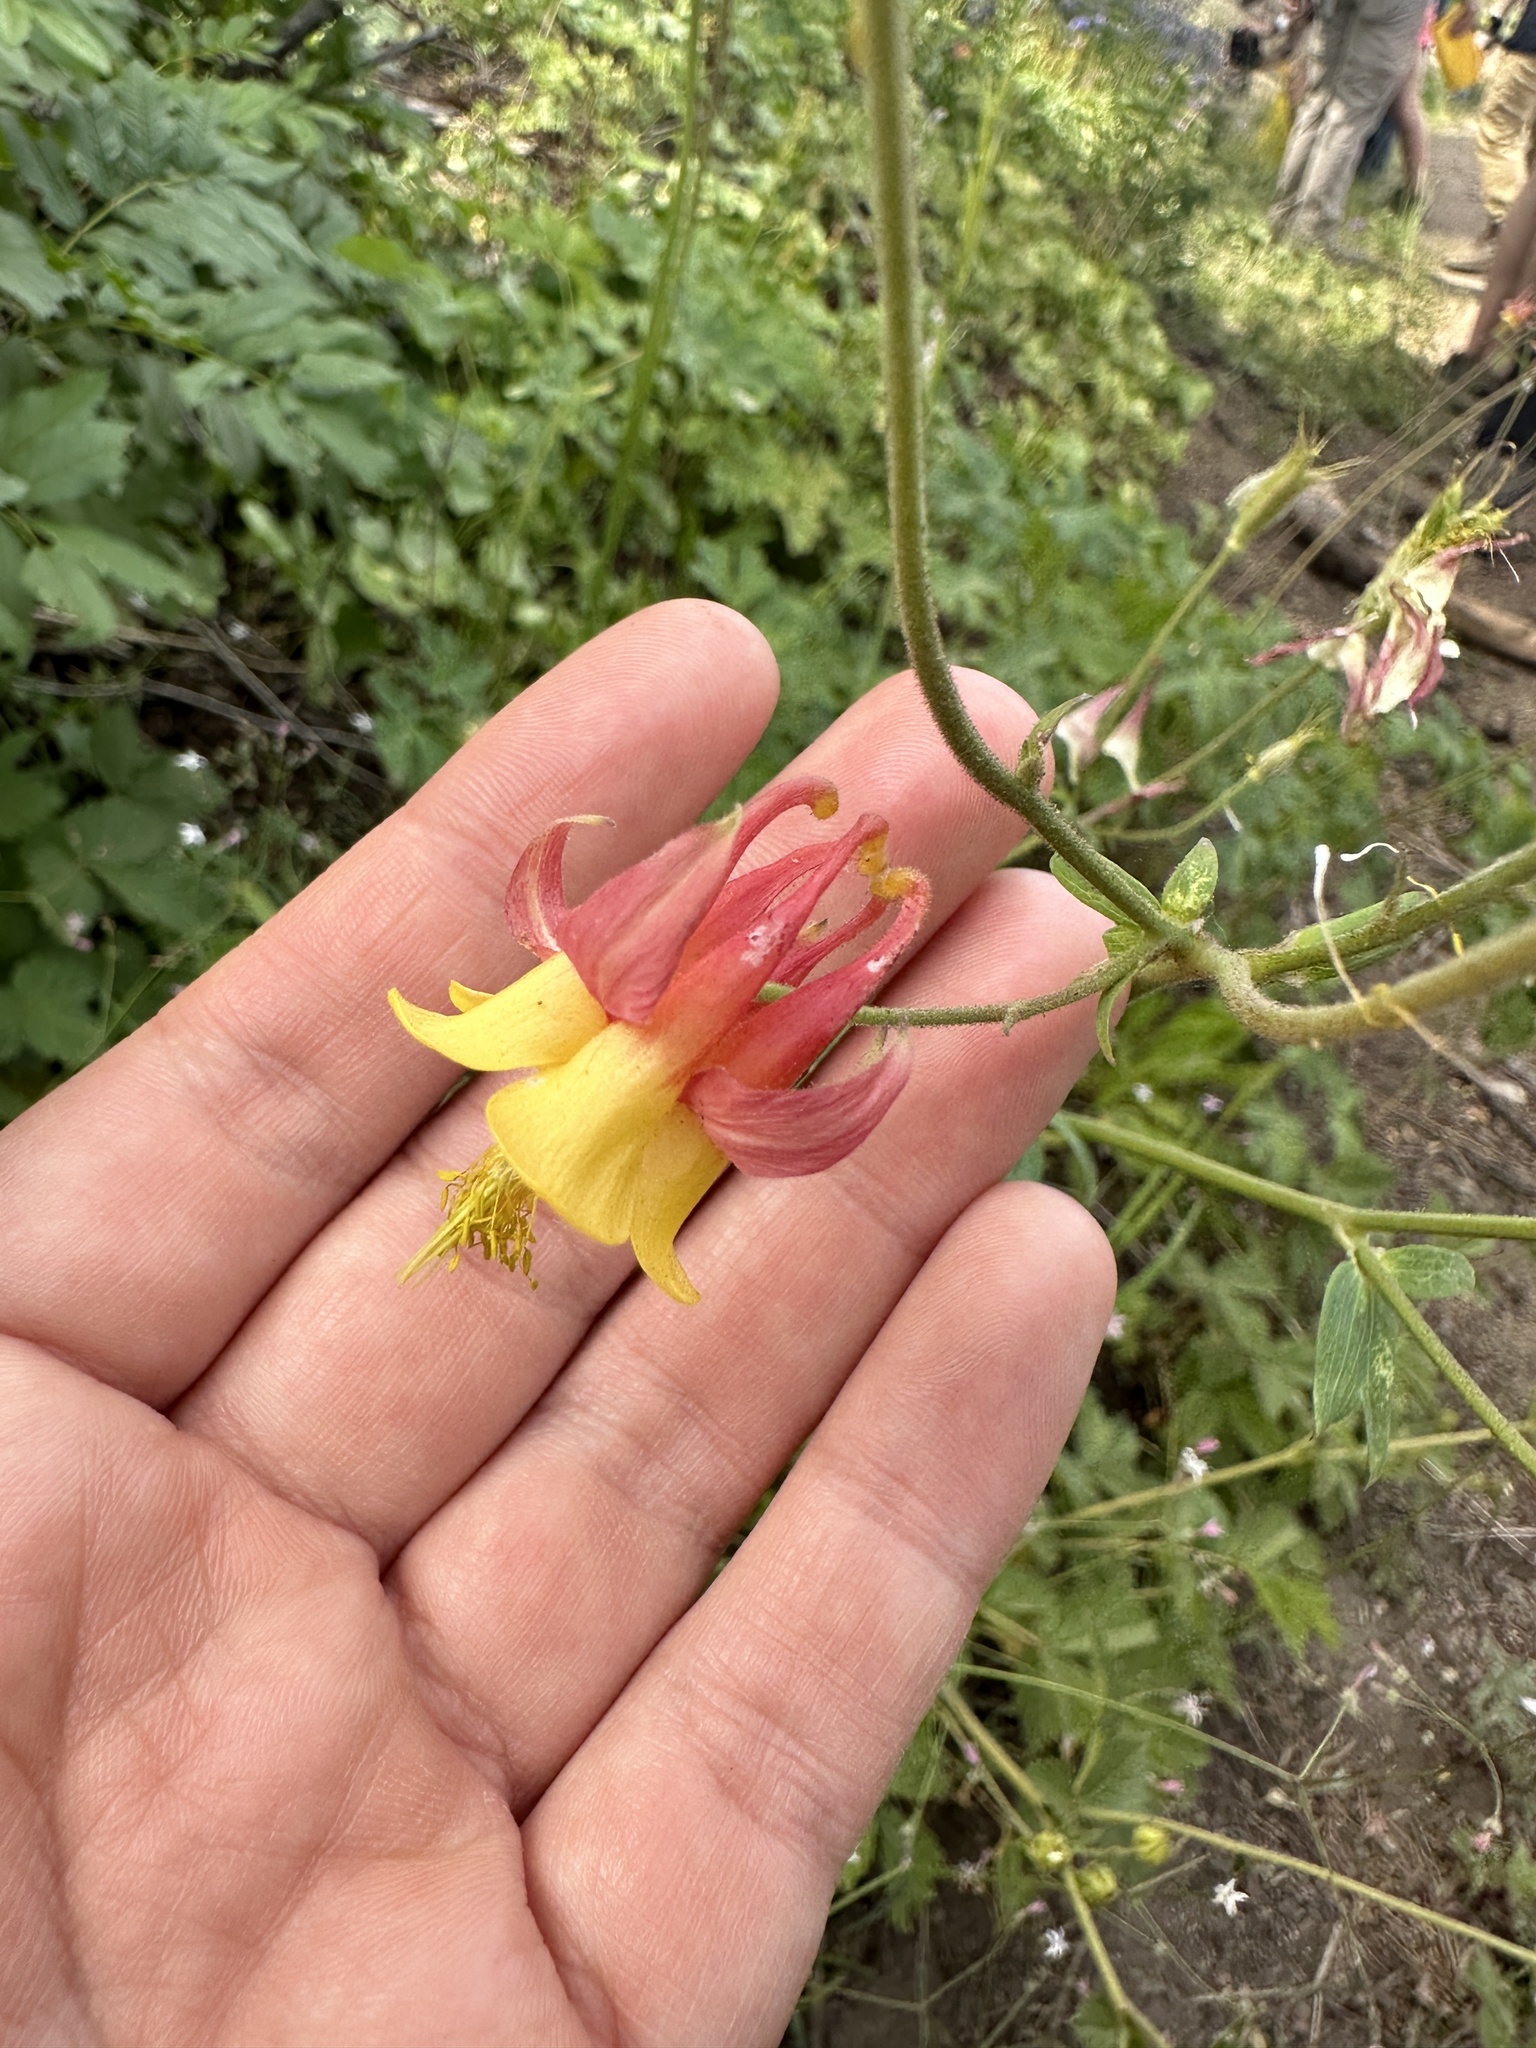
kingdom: Plantae
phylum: Tracheophyta
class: Magnoliopsida
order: Ranunculales
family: Ranunculaceae
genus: Aquilegia
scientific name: Aquilegia formosa
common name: Sitka columbine
